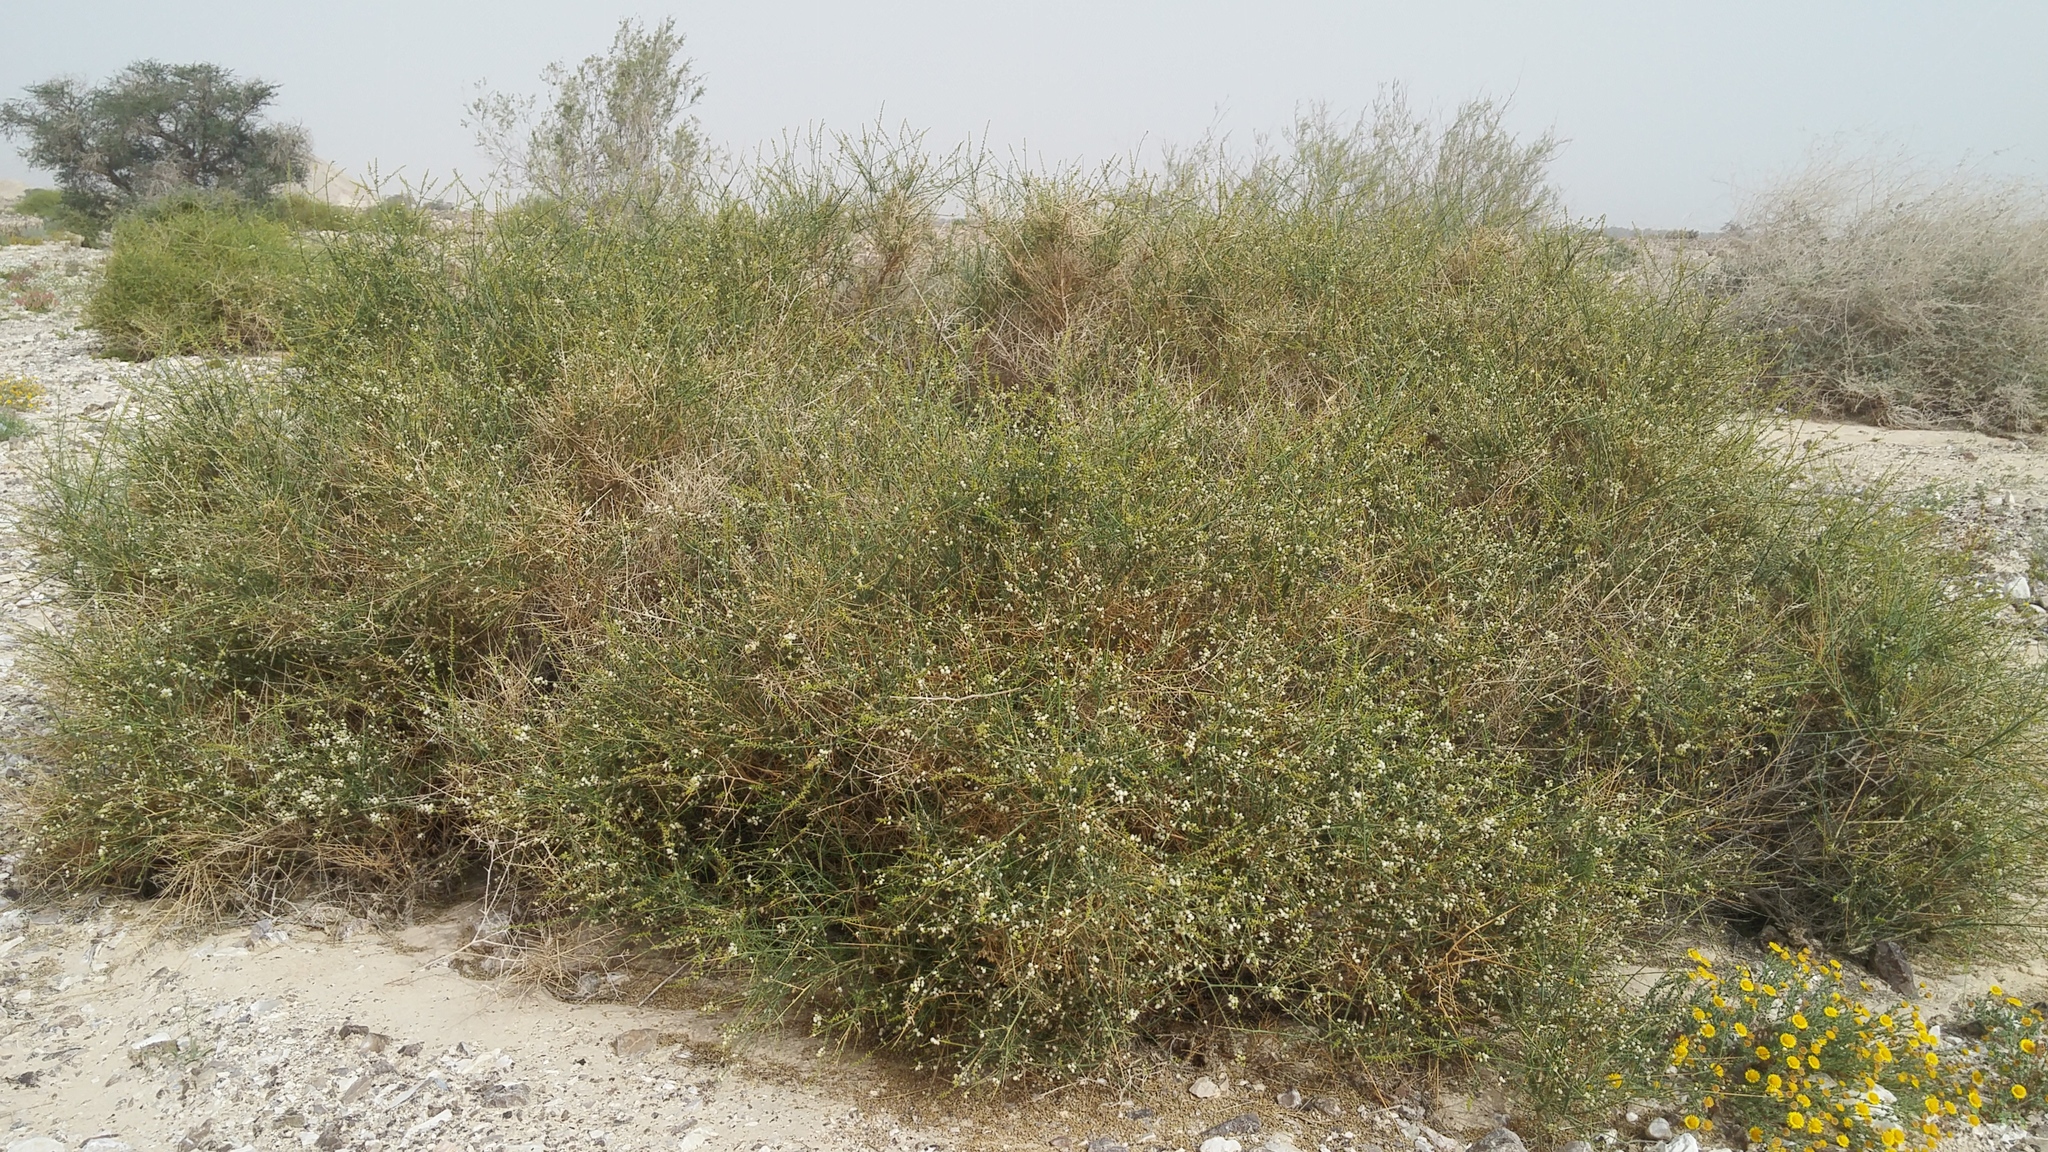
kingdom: Plantae
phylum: Tracheophyta
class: Magnoliopsida
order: Brassicales
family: Resedaceae
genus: Ochradenus
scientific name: Ochradenus baccatus
